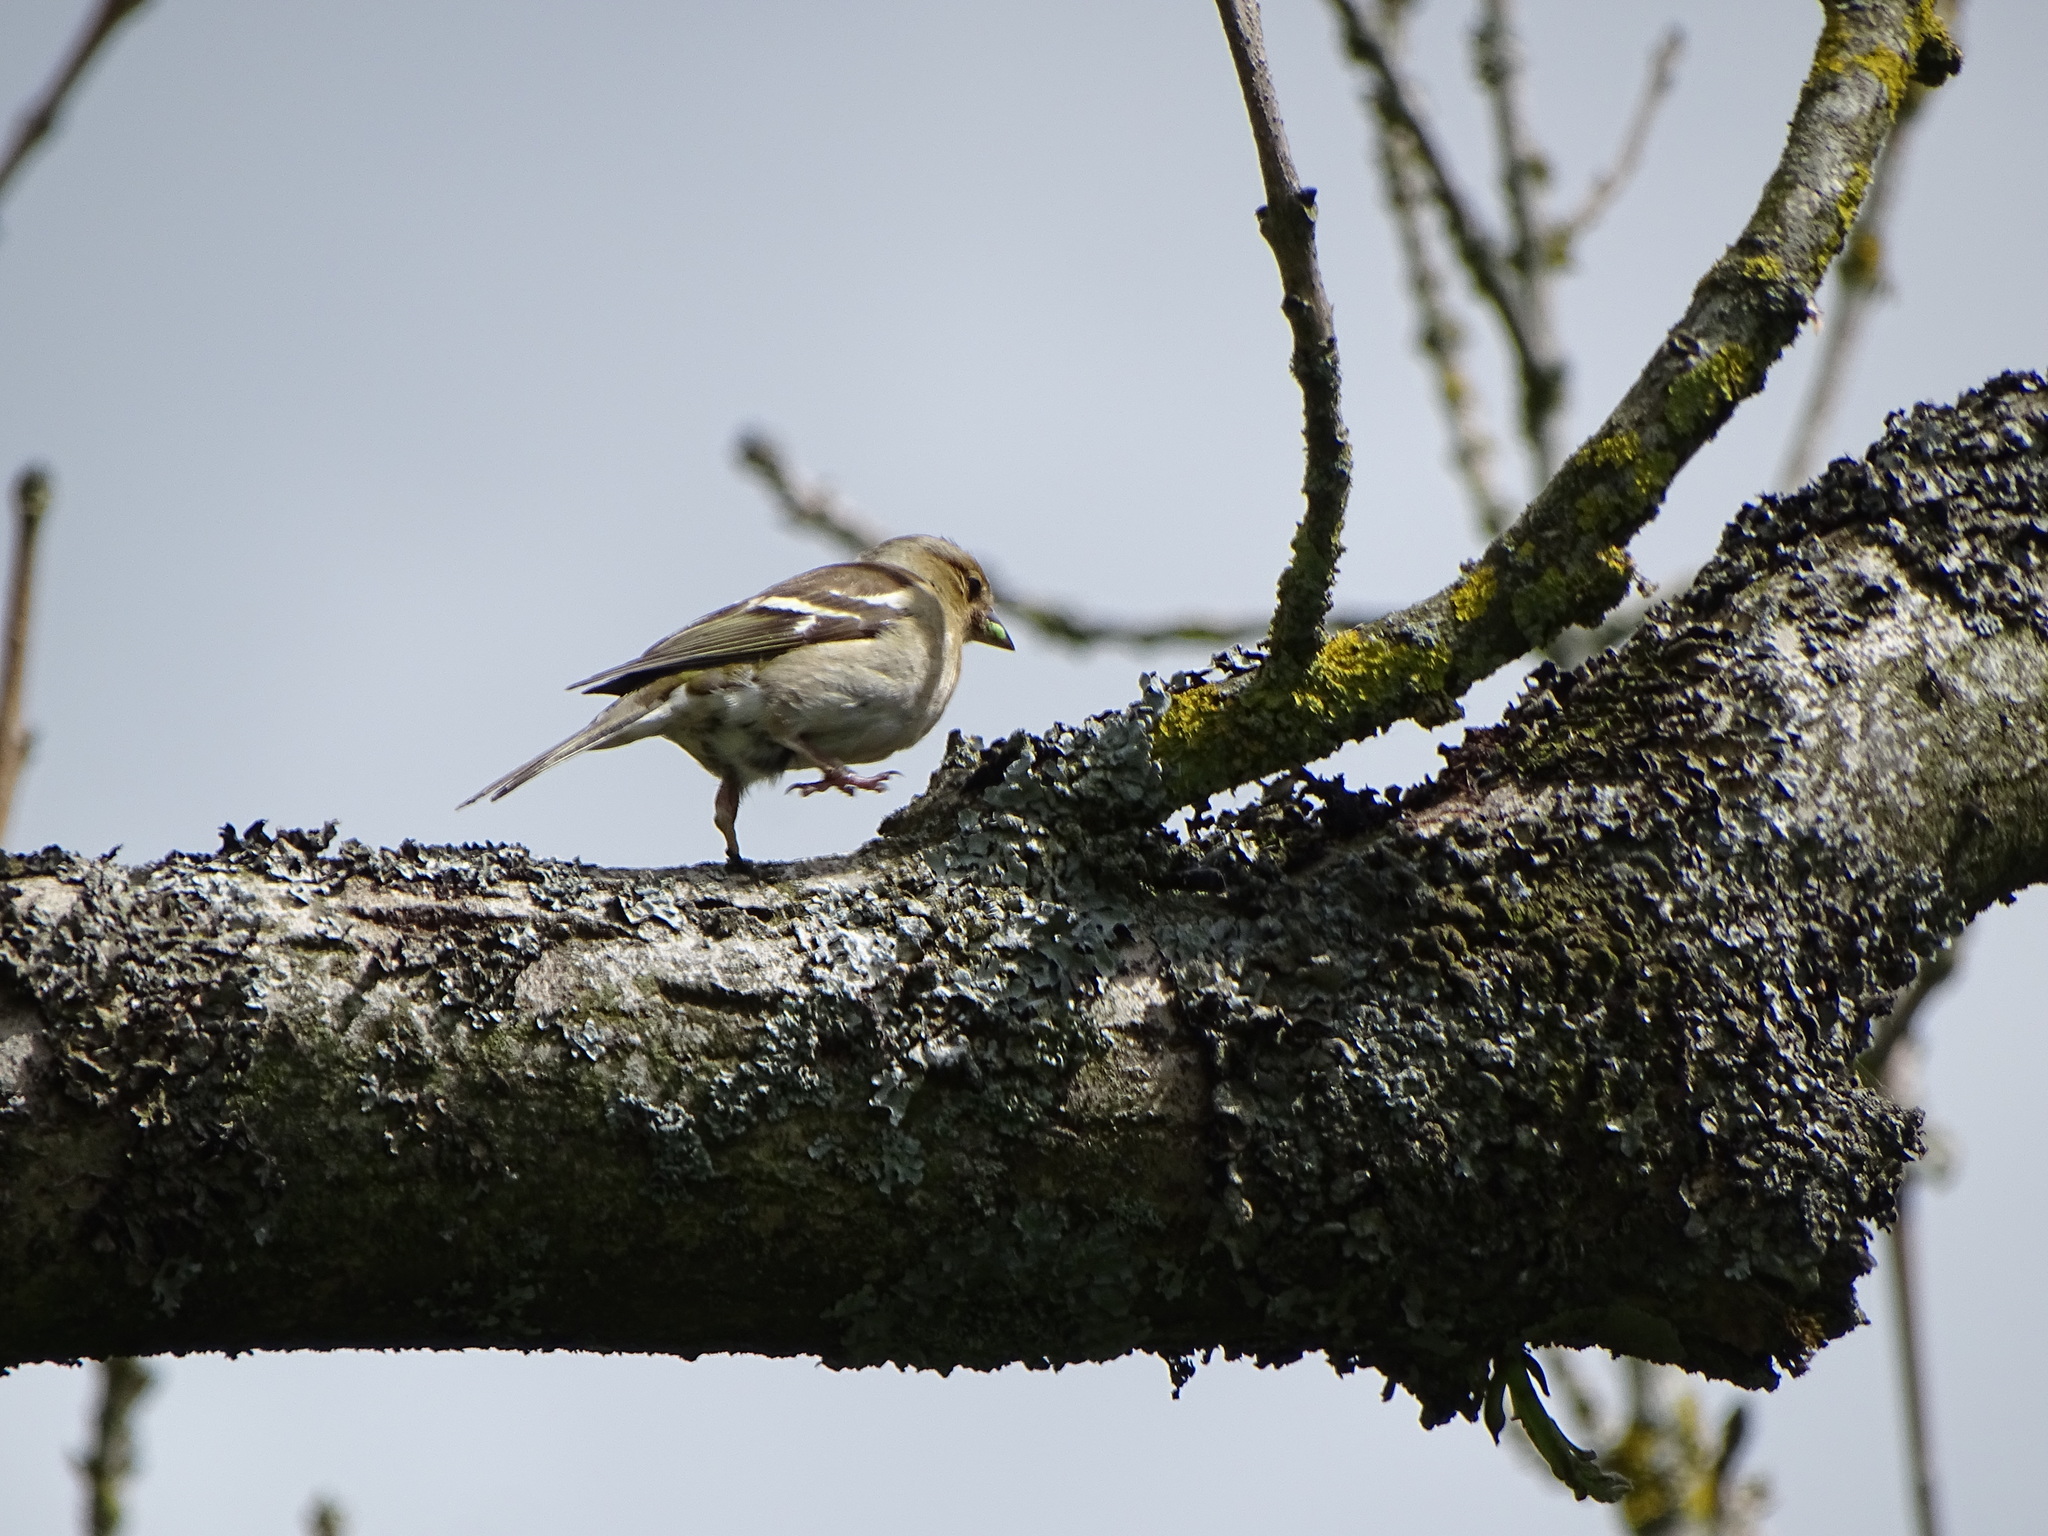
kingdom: Animalia
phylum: Chordata
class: Aves
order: Passeriformes
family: Fringillidae
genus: Fringilla
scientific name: Fringilla coelebs
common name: Common chaffinch
